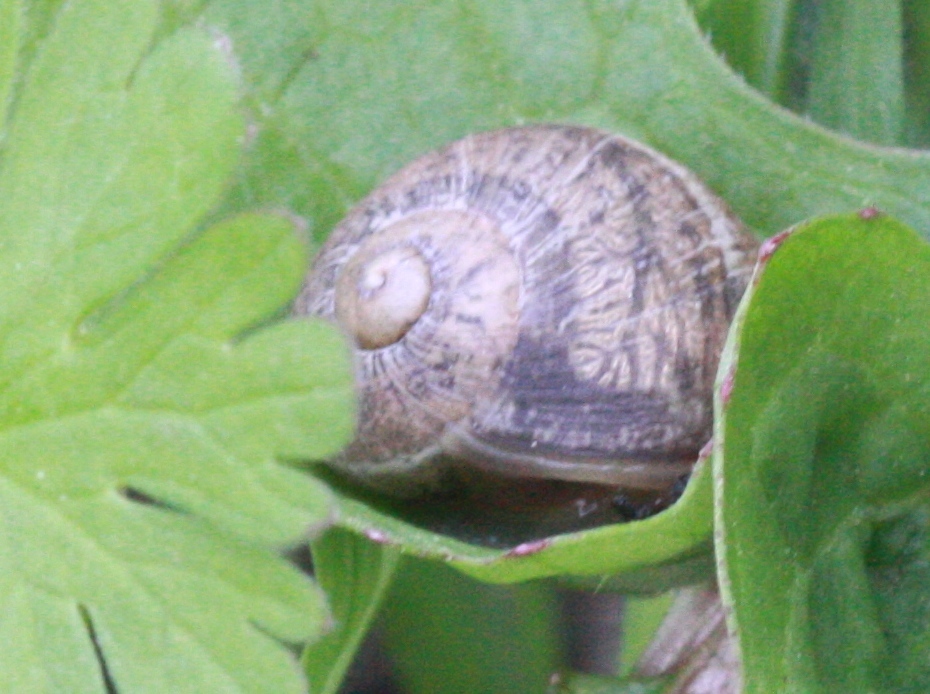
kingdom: Animalia
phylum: Mollusca
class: Gastropoda
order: Stylommatophora
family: Helicidae
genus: Cornu
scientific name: Cornu aspersum
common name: Brown garden snail
